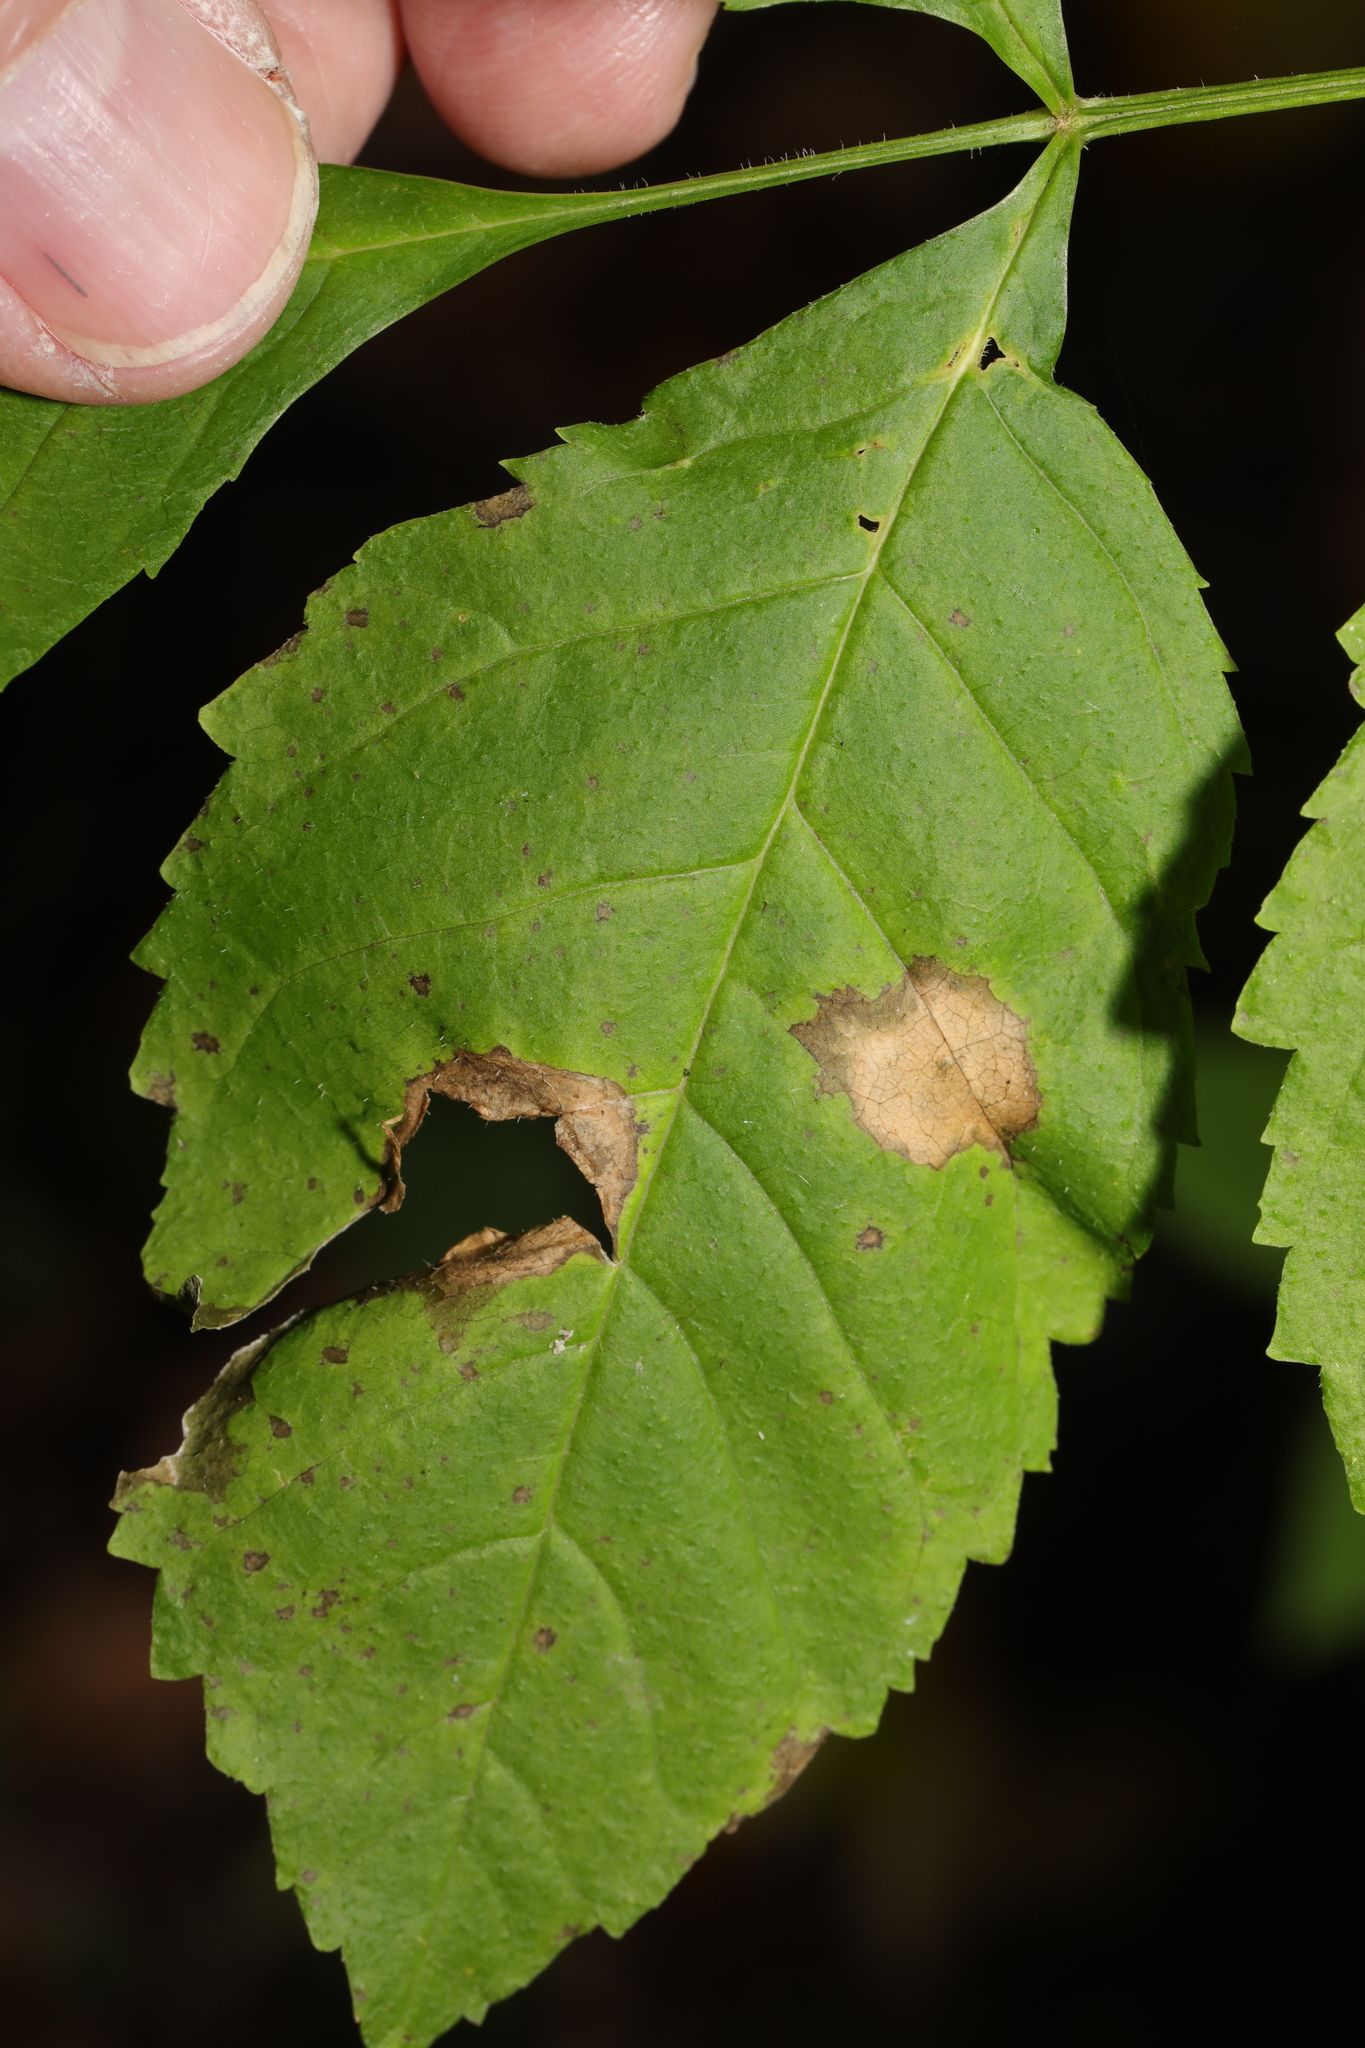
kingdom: Animalia
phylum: Arthropoda
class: Insecta
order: Diptera
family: Cecidomyiidae
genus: Dasineura
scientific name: Dasineura fraxinea
